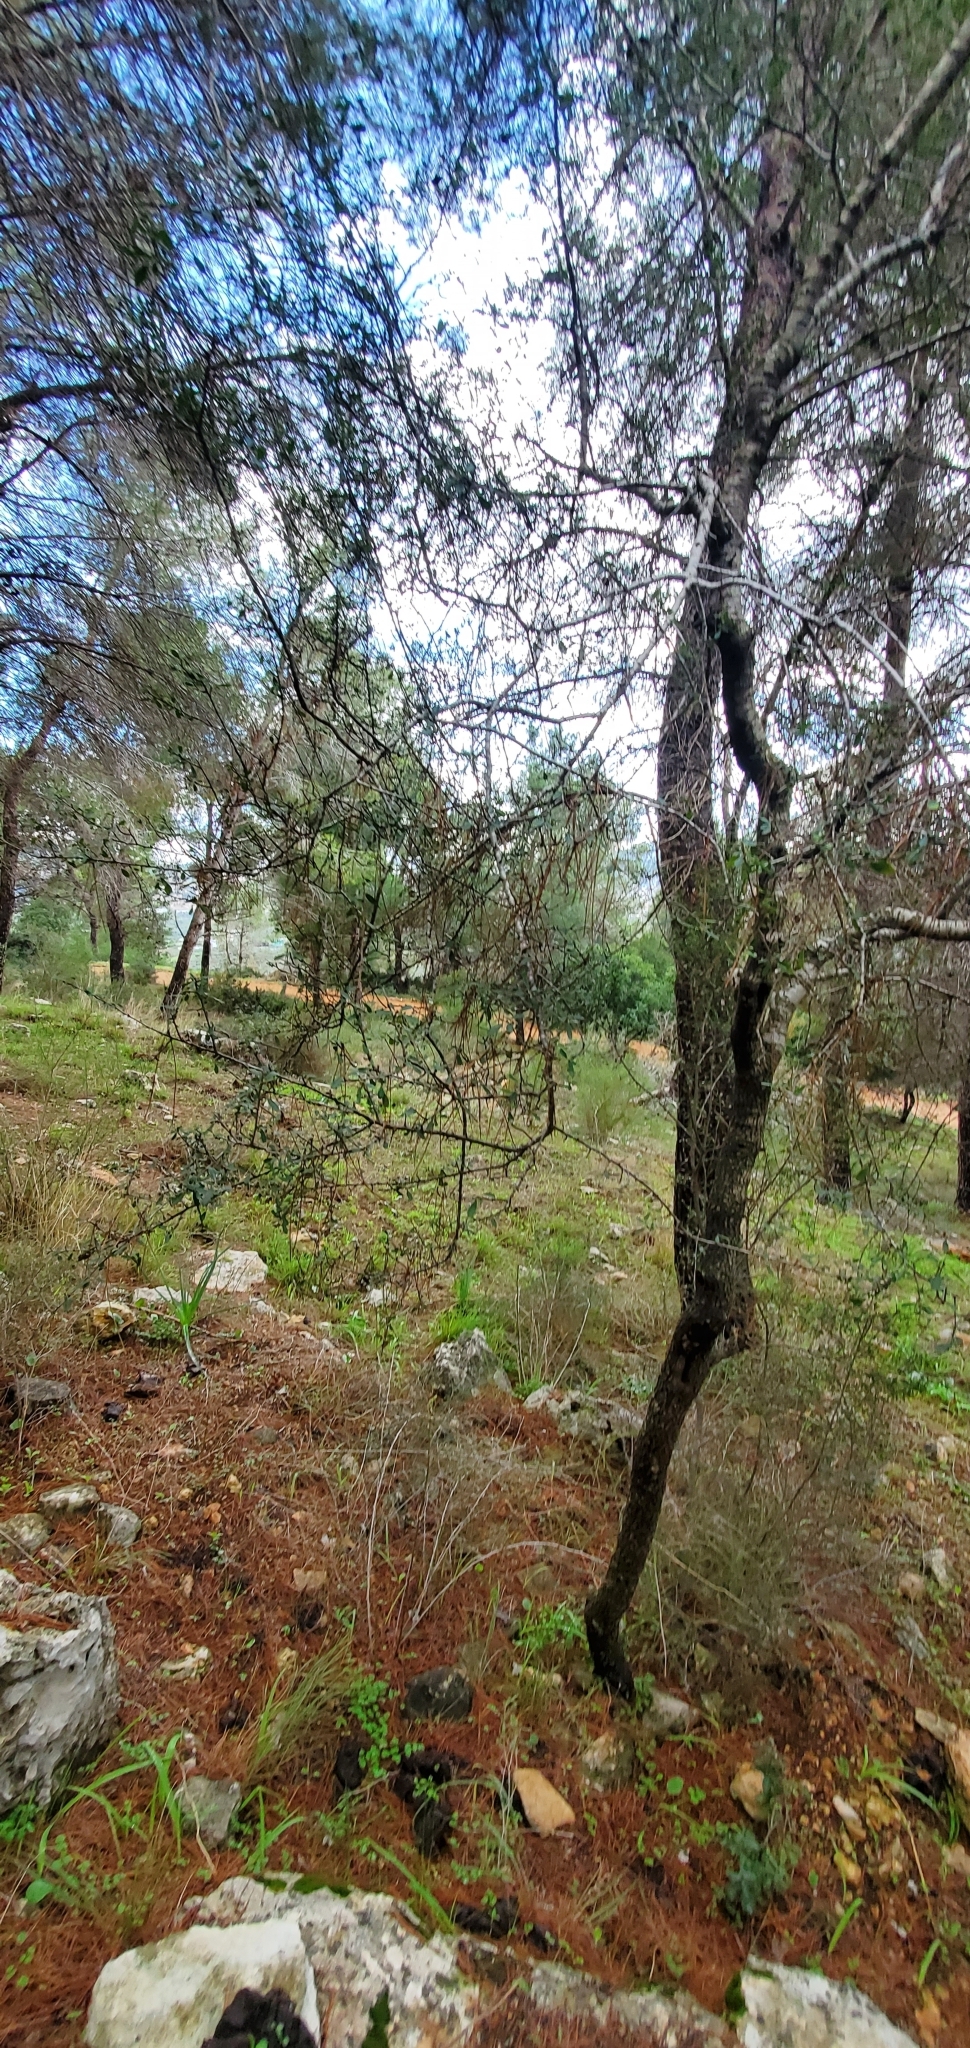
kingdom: Plantae
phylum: Tracheophyta
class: Magnoliopsida
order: Rosales
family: Rhamnaceae
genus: Rhamnus
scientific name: Rhamnus lycioides
